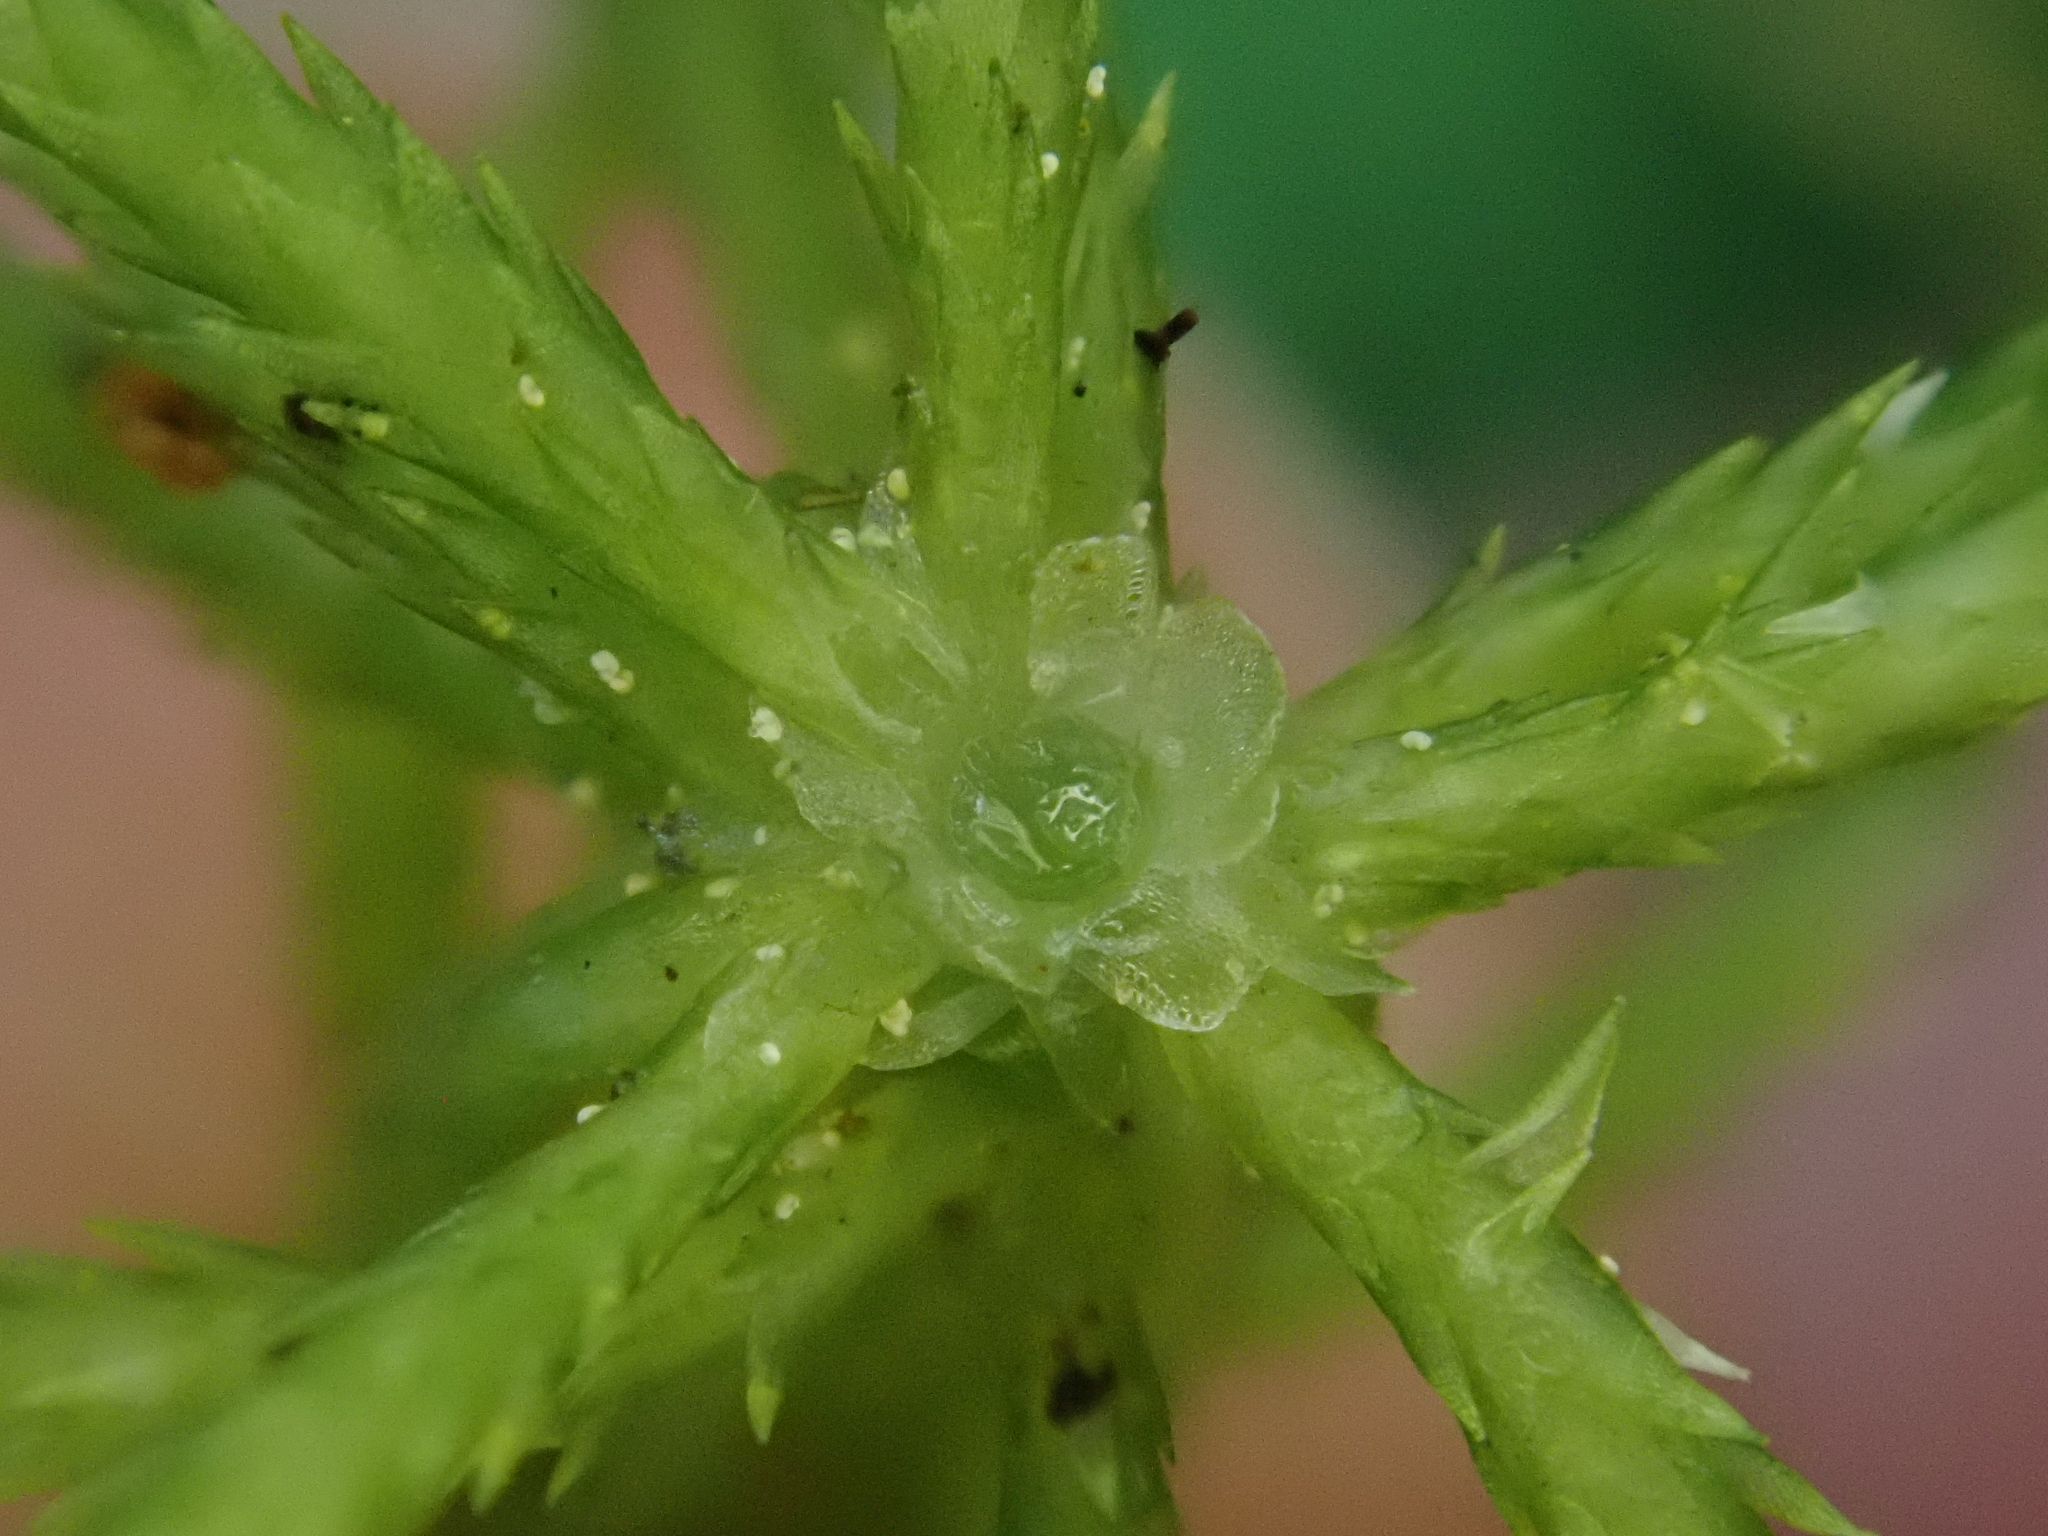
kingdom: Plantae
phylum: Bryophyta
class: Sphagnopsida
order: Sphagnales
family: Sphagnaceae
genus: Sphagnum
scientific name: Sphagnum girgensohnii
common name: Girgensohn's peat moss
